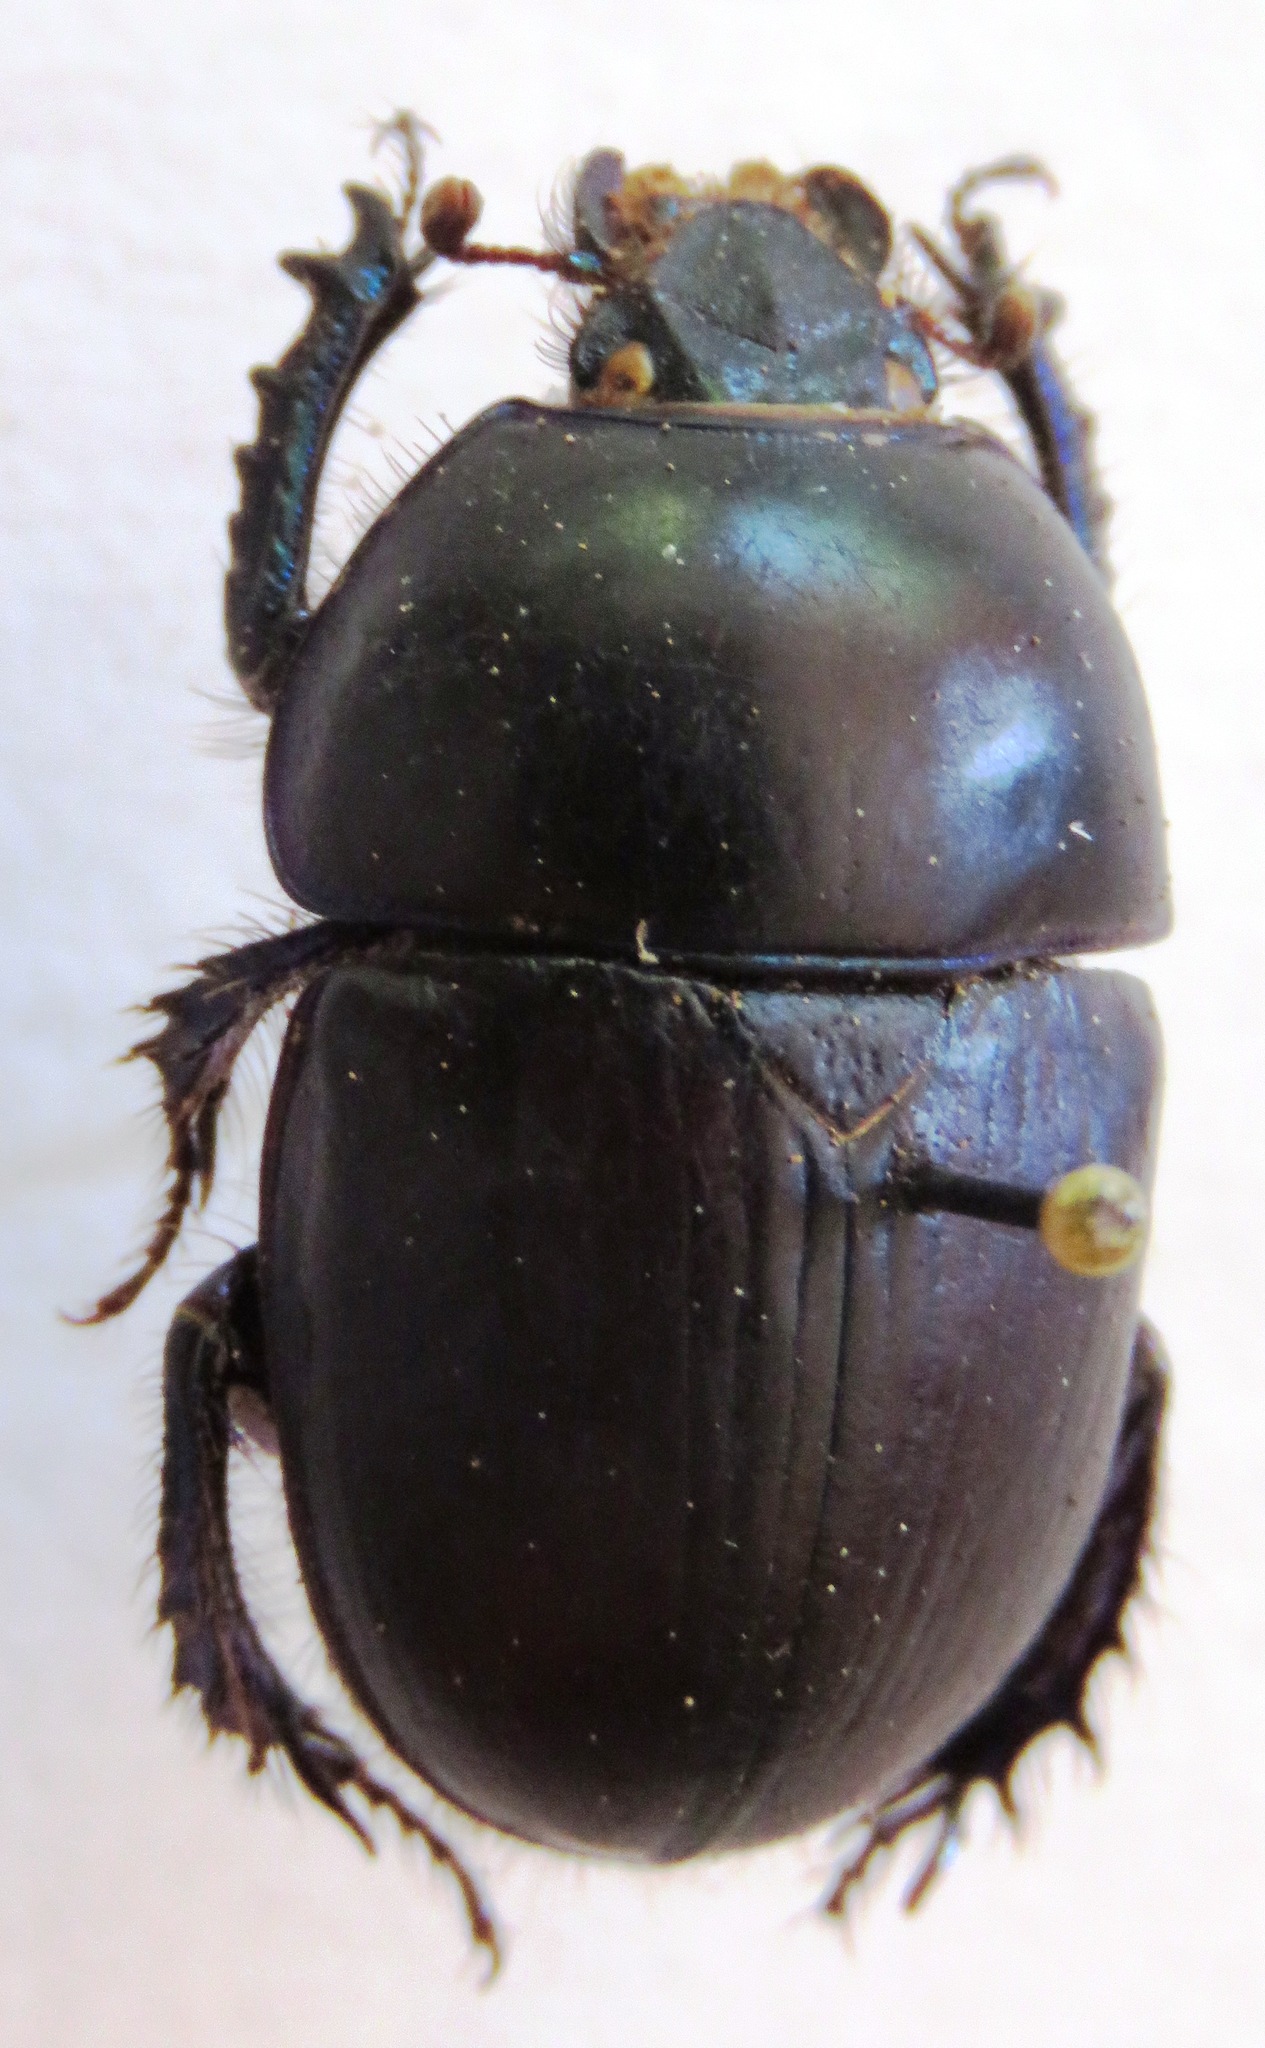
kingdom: Animalia
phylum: Arthropoda
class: Insecta
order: Coleoptera
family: Geotrupidae
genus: Sericotrupes
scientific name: Sericotrupes niger
